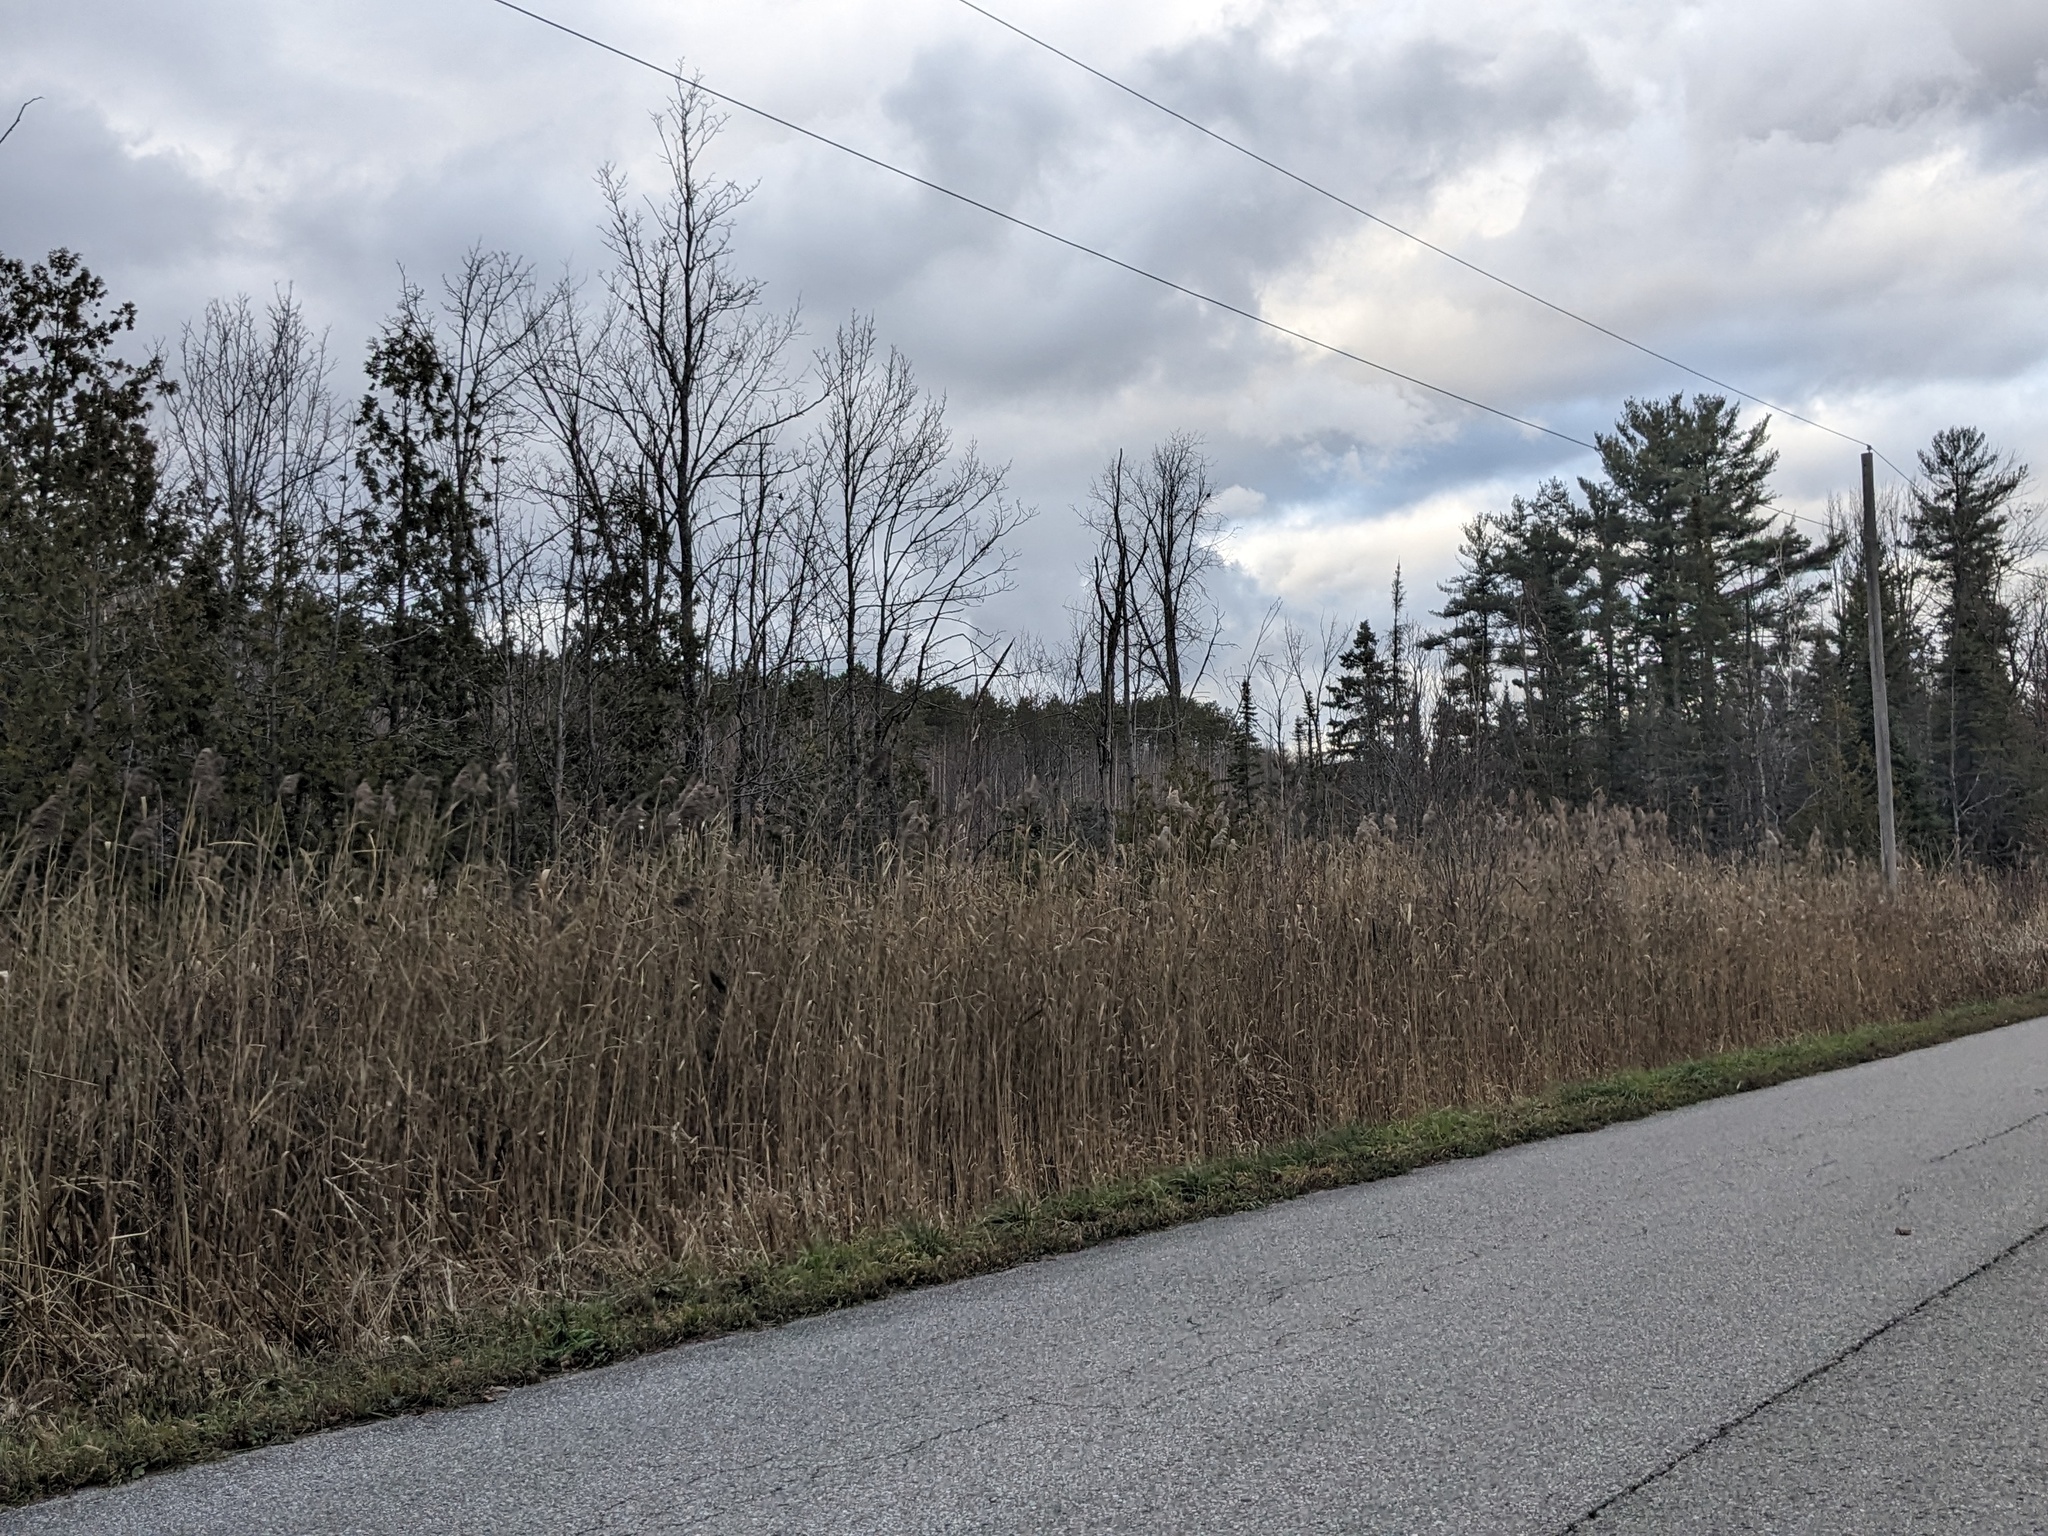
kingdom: Plantae
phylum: Tracheophyta
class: Liliopsida
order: Poales
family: Poaceae
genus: Phragmites
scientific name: Phragmites australis
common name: Common reed
